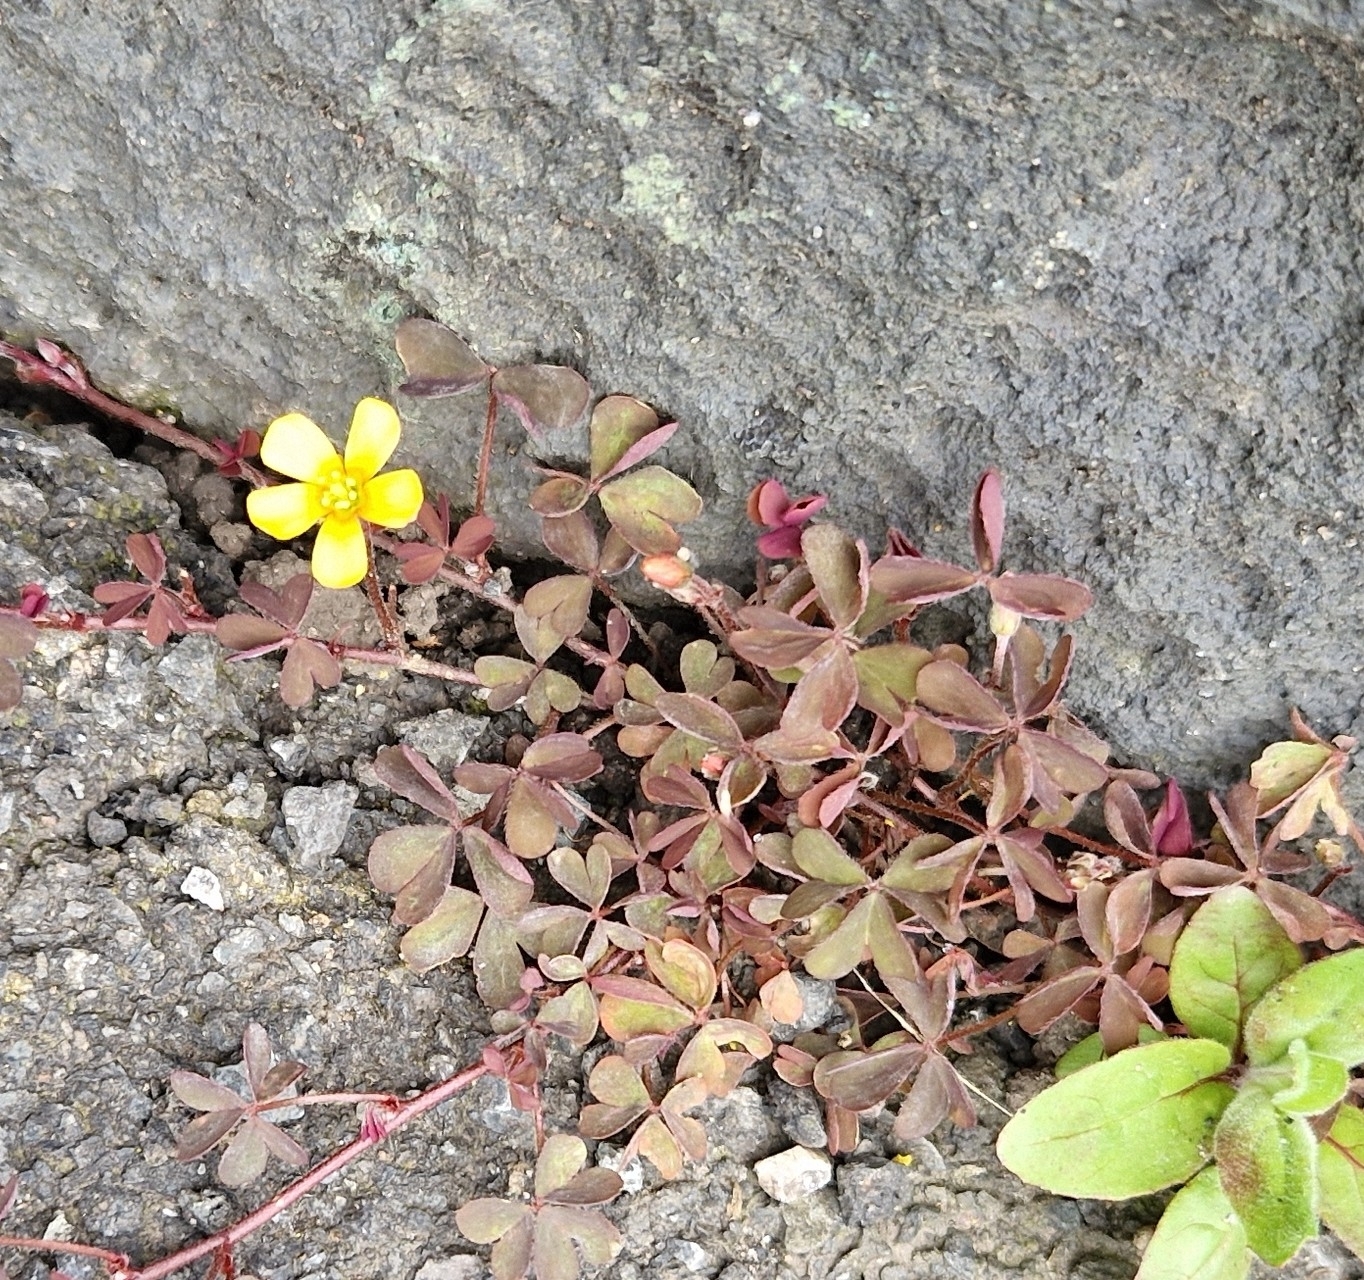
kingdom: Plantae
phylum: Tracheophyta
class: Magnoliopsida
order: Oxalidales
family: Oxalidaceae
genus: Oxalis
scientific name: Oxalis corniculata
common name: Procumbent yellow-sorrel
